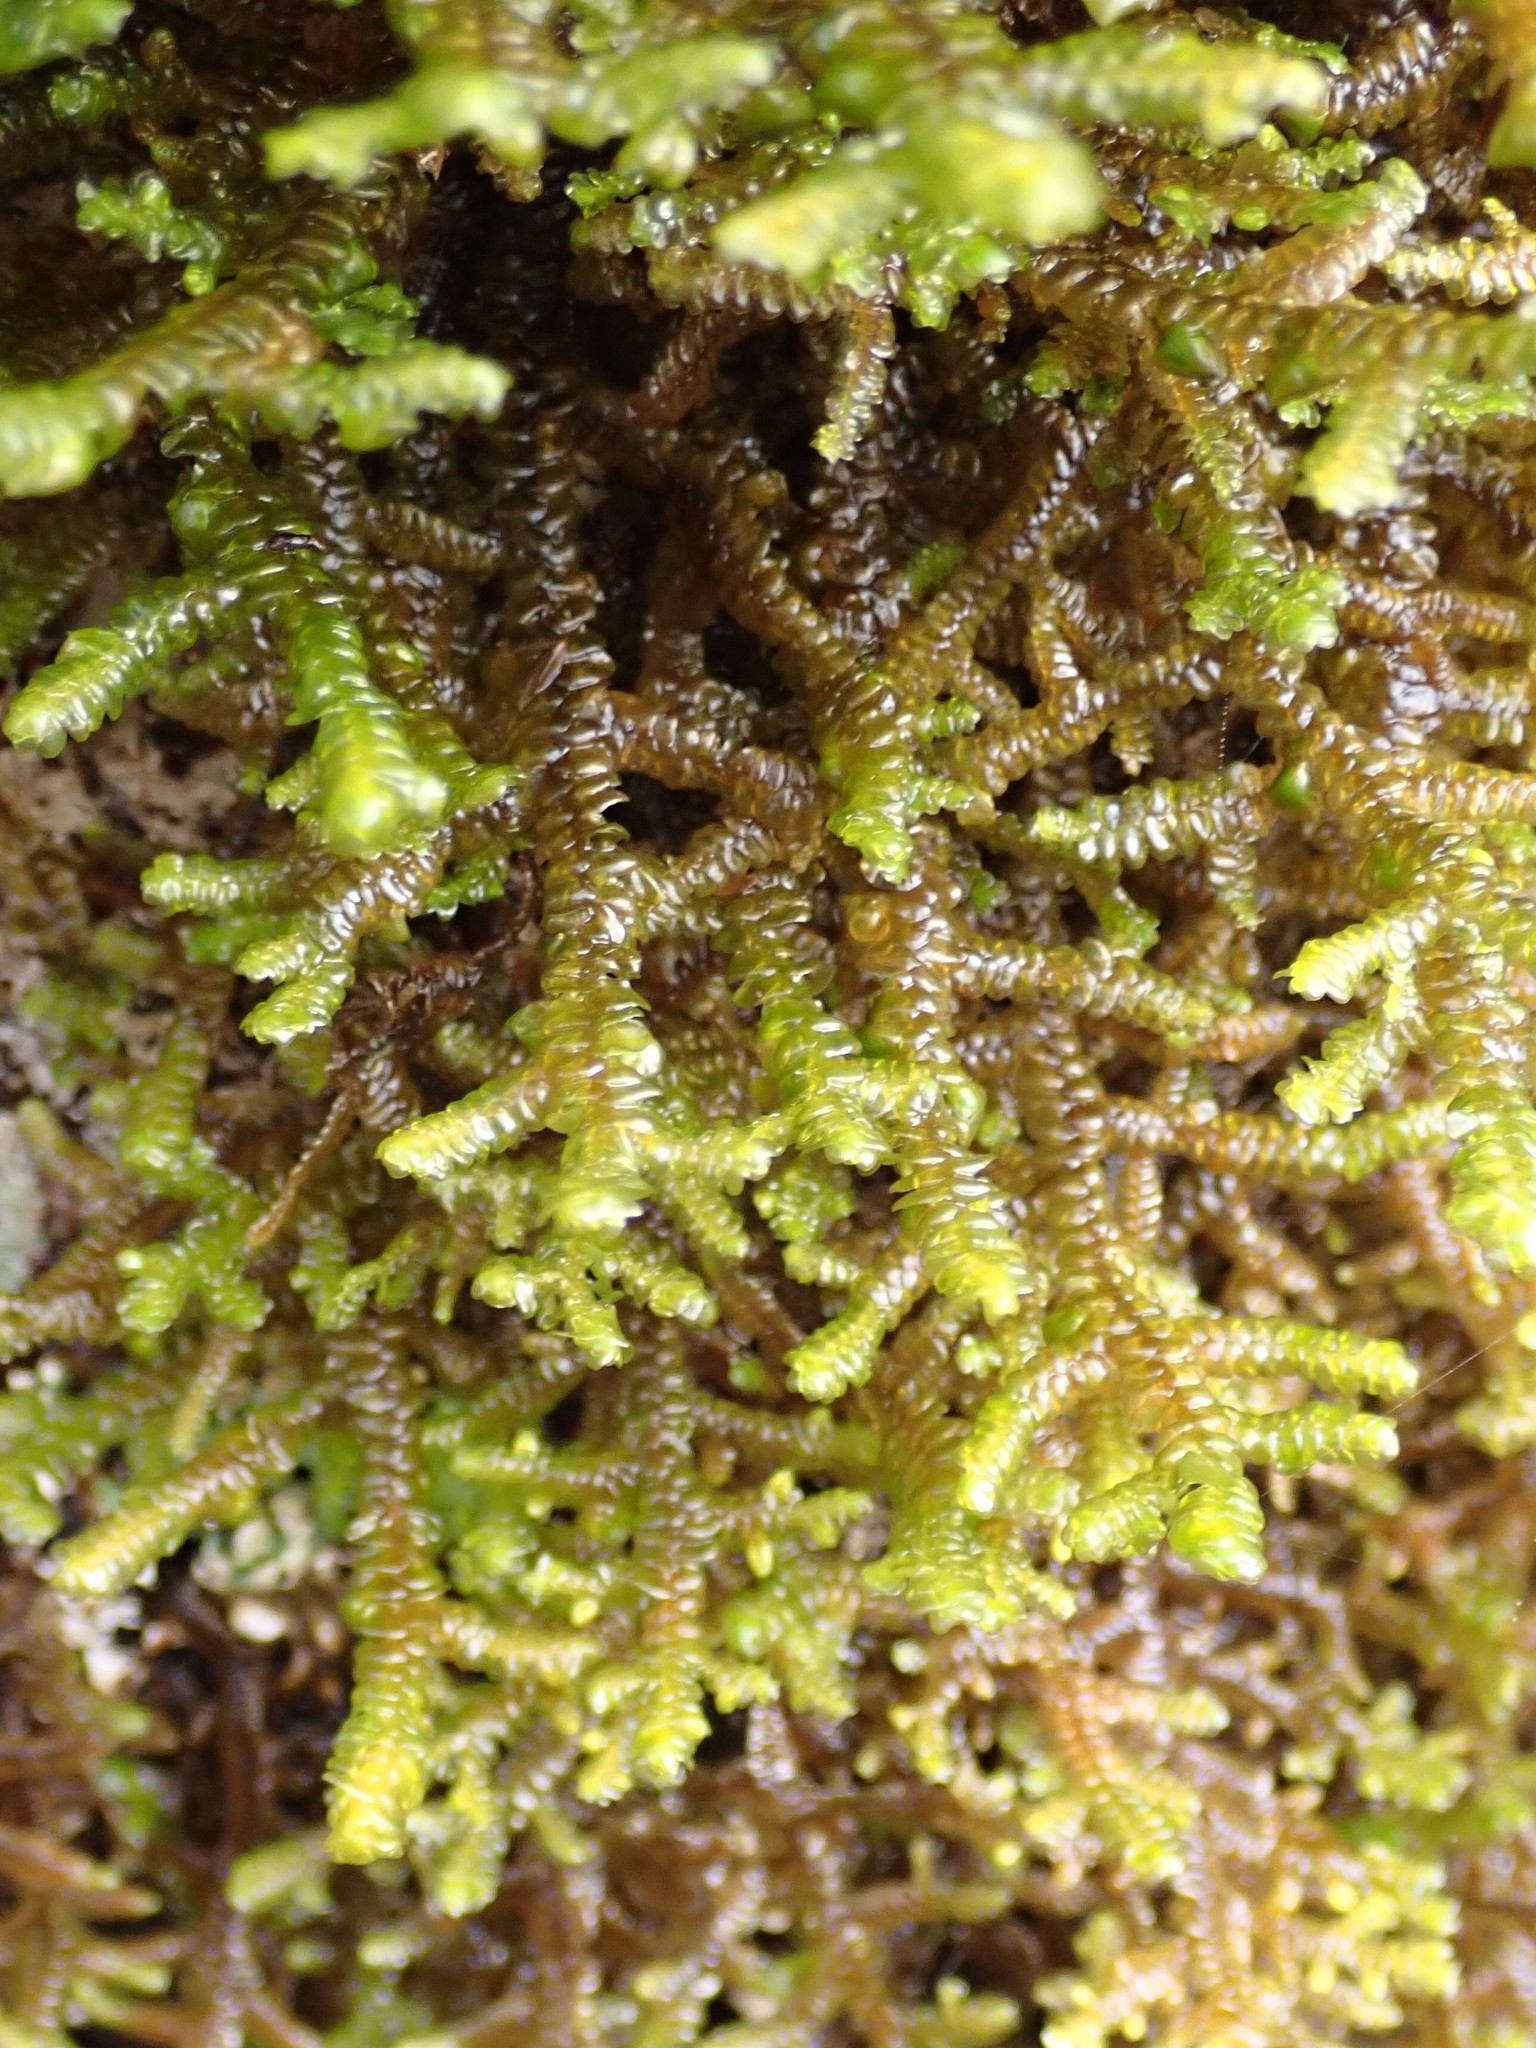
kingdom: Plantae
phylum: Marchantiophyta
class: Jungermanniopsida
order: Porellales
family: Porellaceae
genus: Porella
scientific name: Porella navicularis
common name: Tree ruffle liverwort
